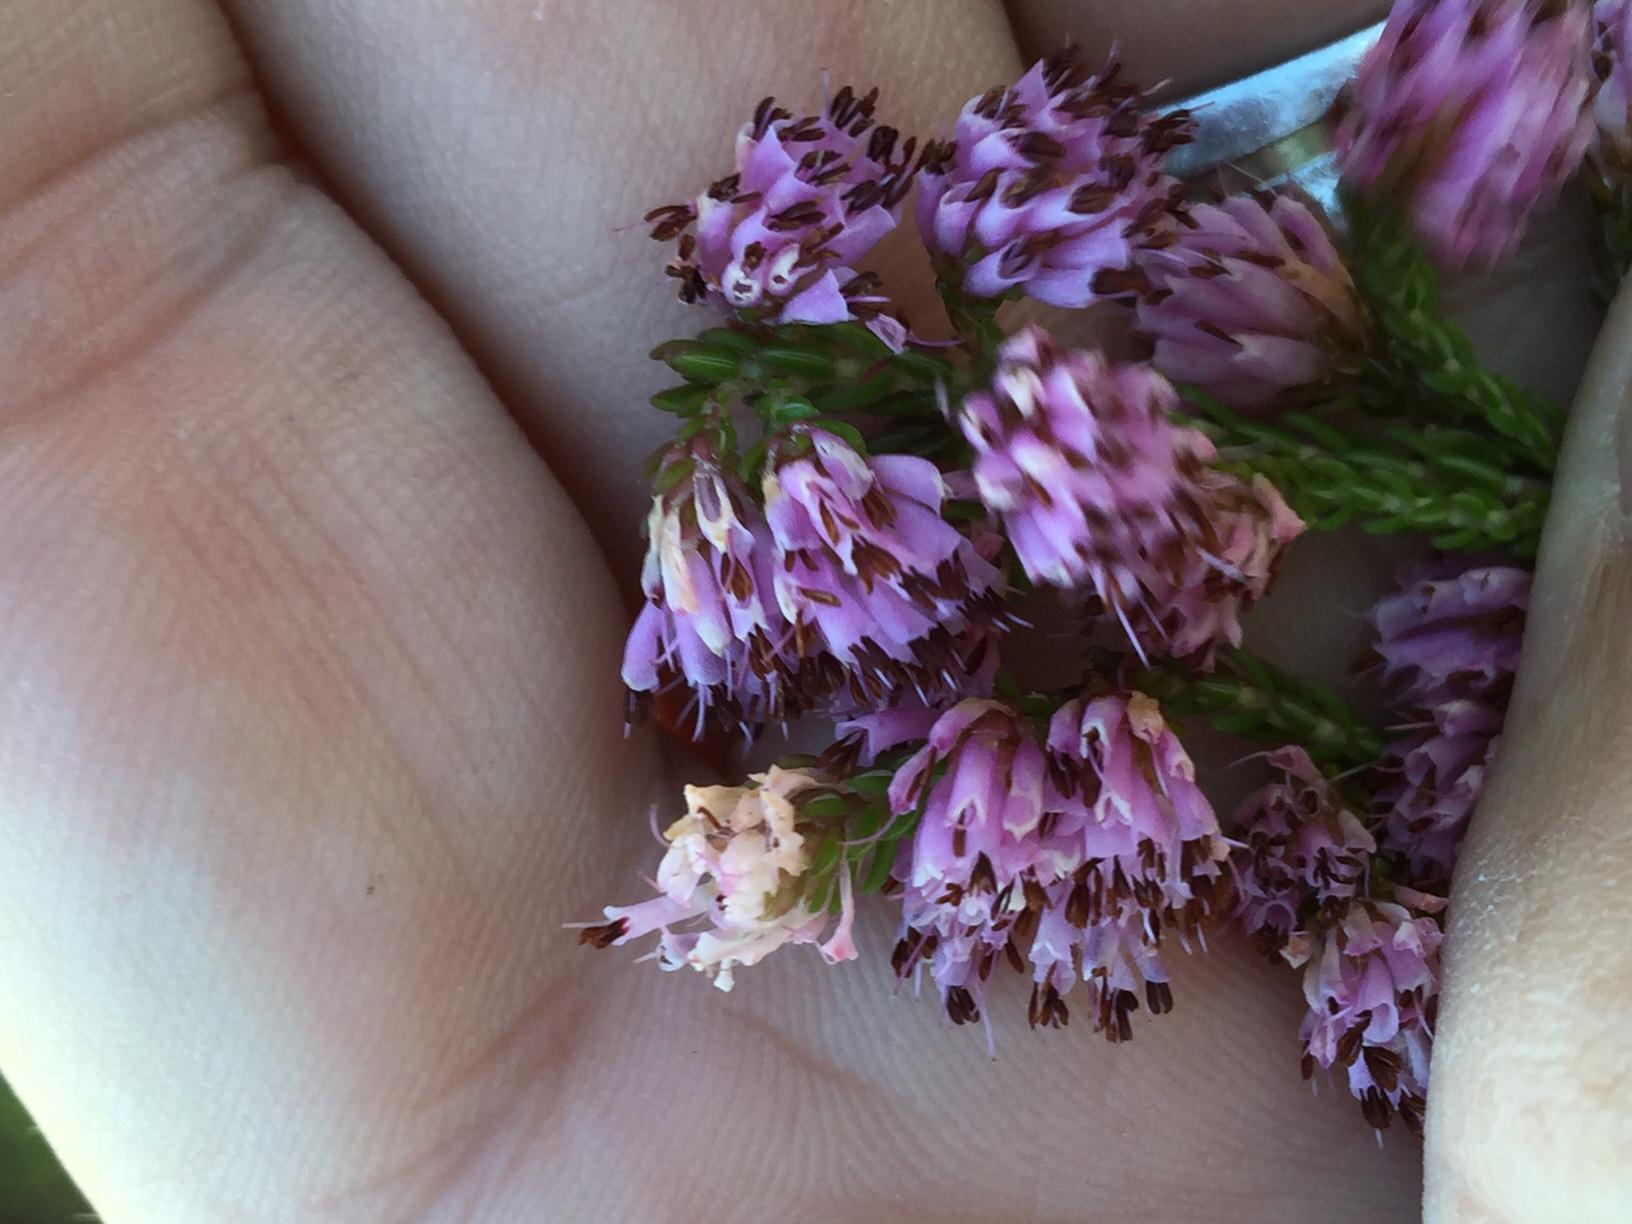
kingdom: Plantae
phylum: Tracheophyta
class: Magnoliopsida
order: Ericales
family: Ericaceae
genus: Erica
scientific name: Erica labialis
